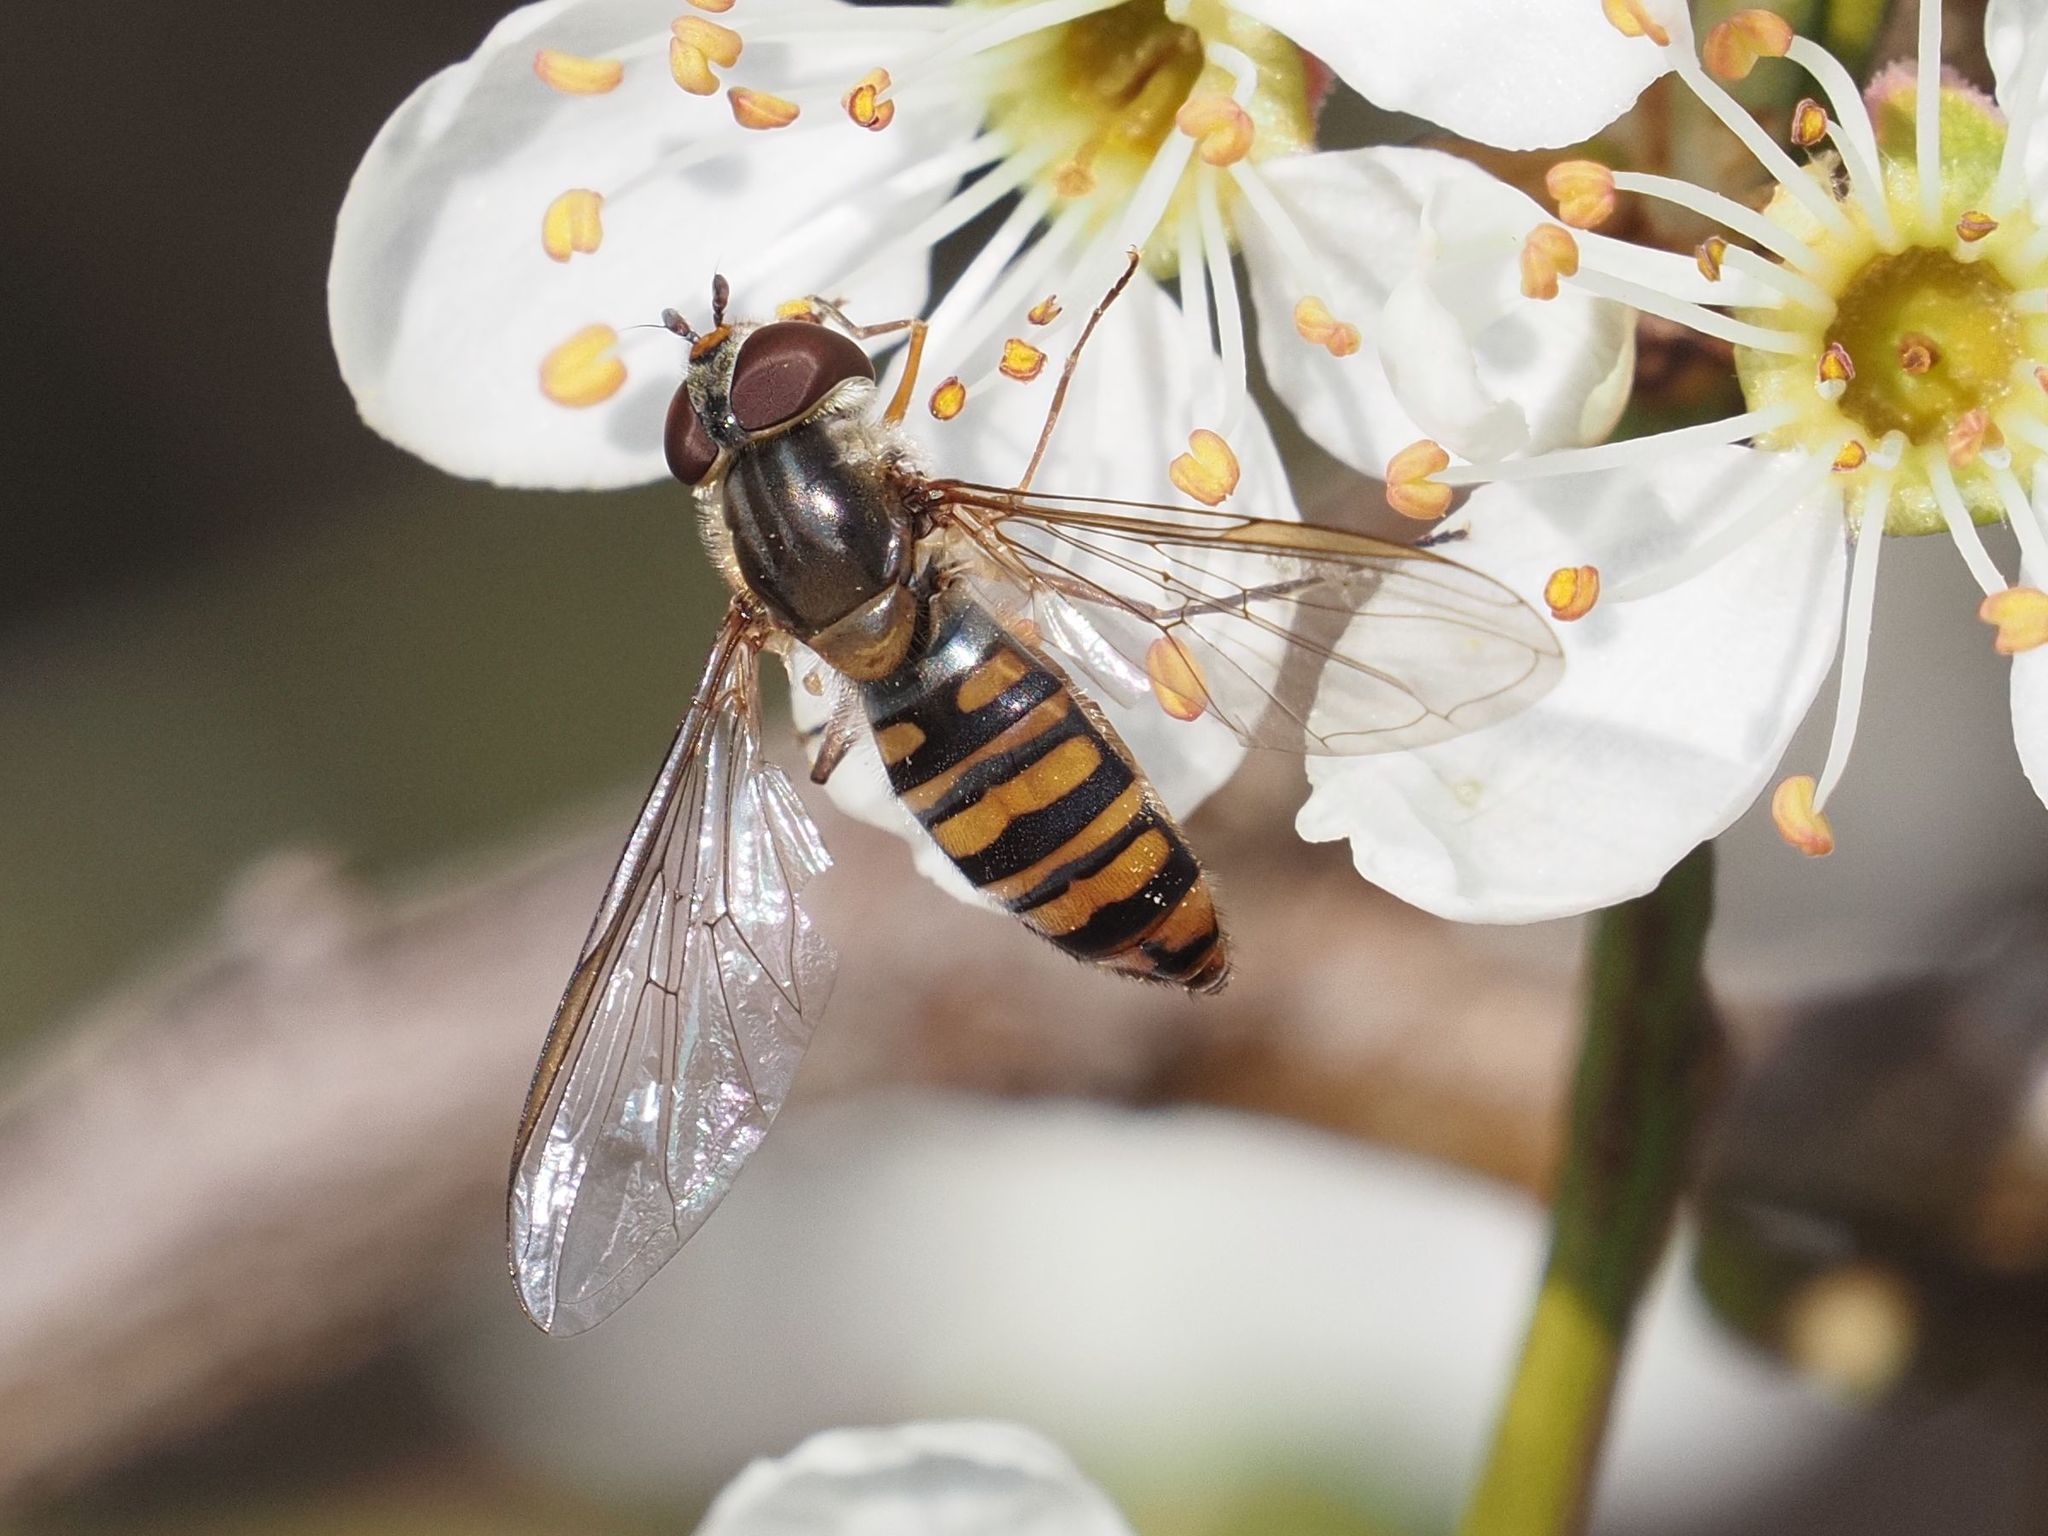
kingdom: Animalia
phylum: Arthropoda
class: Insecta
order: Diptera
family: Syrphidae
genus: Episyrphus
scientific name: Episyrphus balteatus
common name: Marmalade hoverfly
